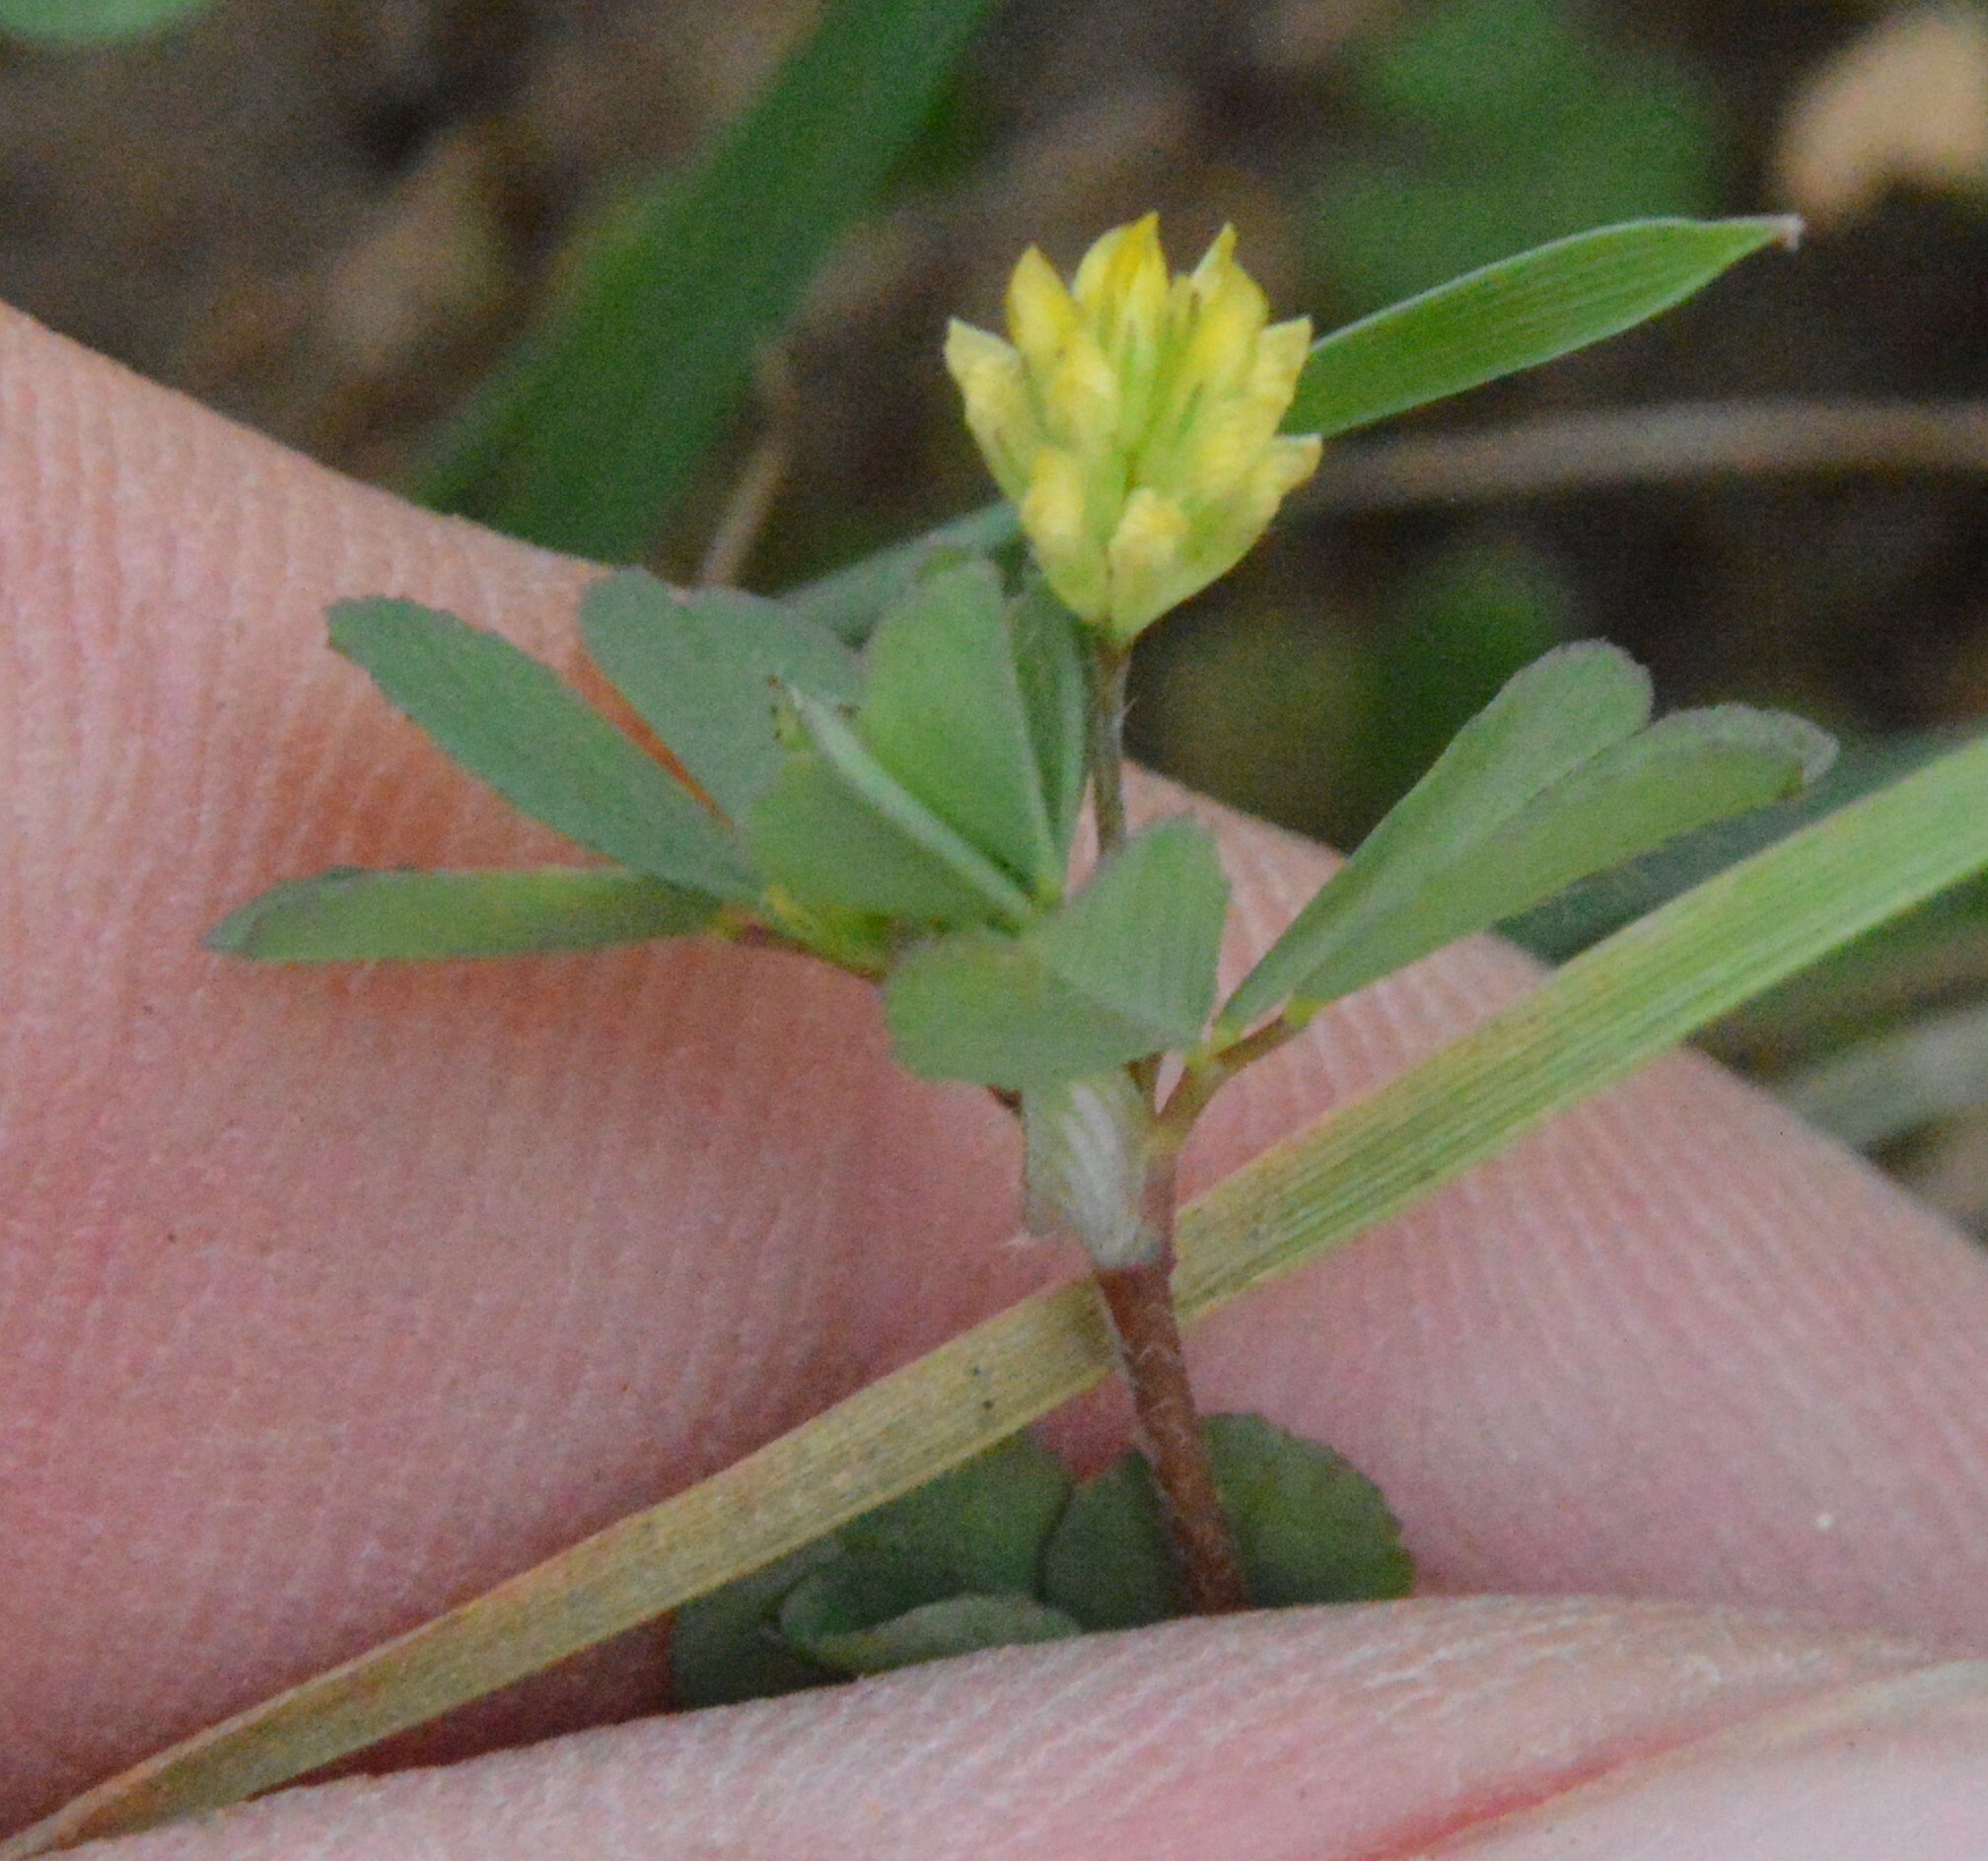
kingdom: Plantae
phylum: Tracheophyta
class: Magnoliopsida
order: Fabales
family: Fabaceae
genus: Trifolium
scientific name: Trifolium dubium
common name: Suckling clover
